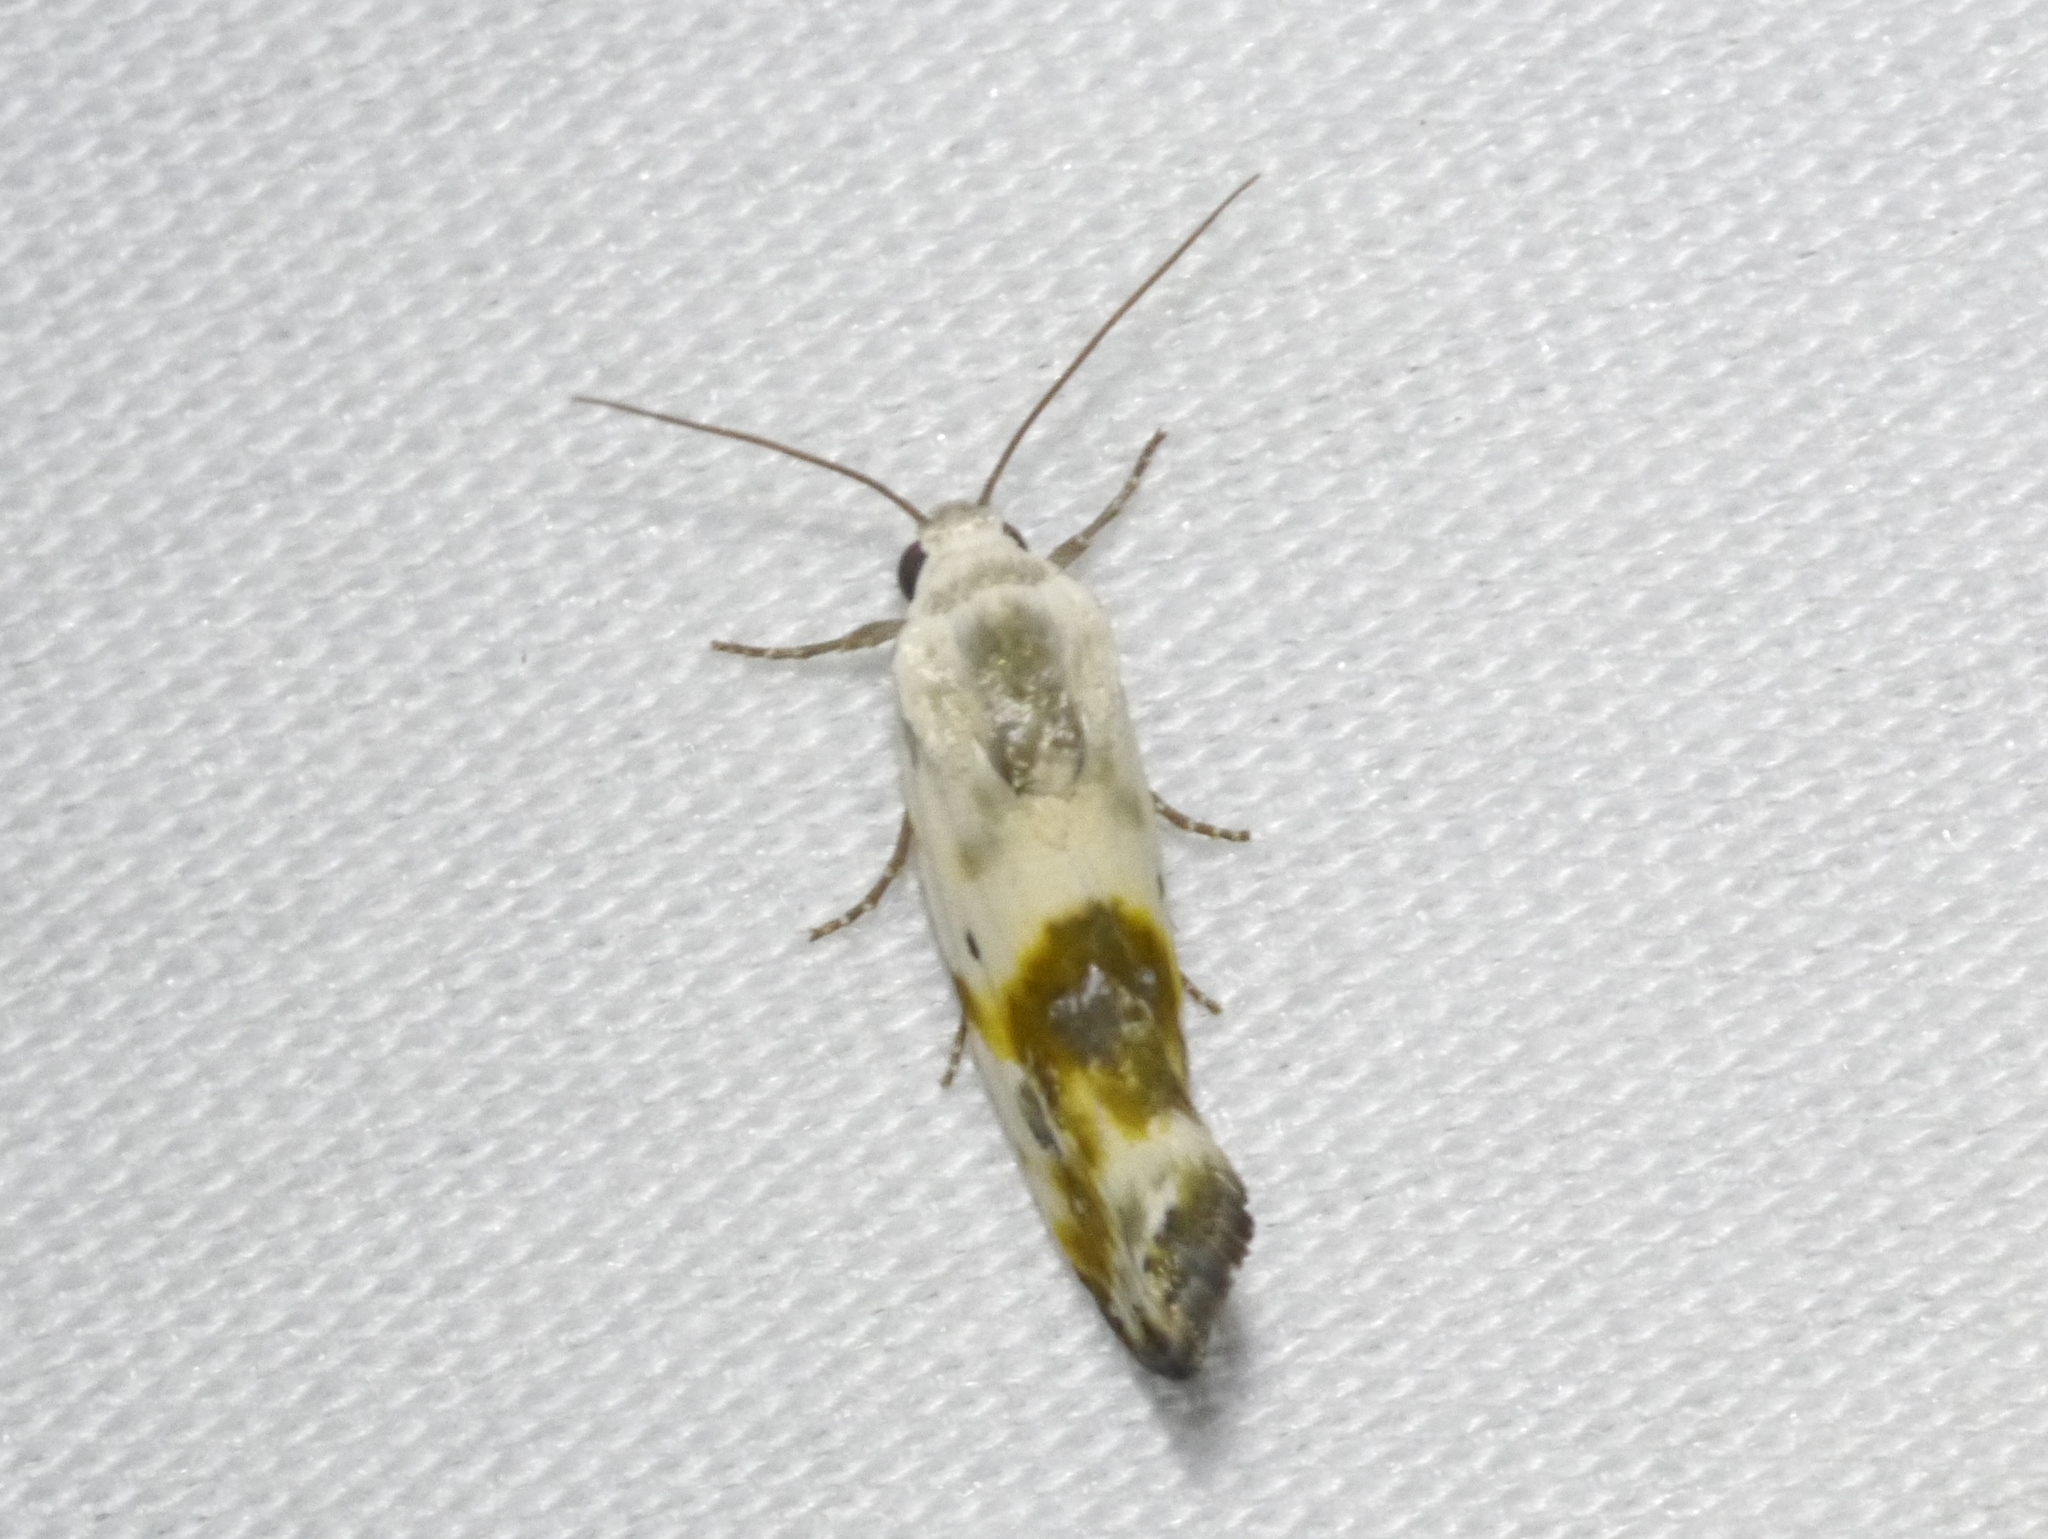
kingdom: Animalia
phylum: Arthropoda
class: Insecta
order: Lepidoptera
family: Noctuidae
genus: Acontia
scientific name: Acontia candefacta
